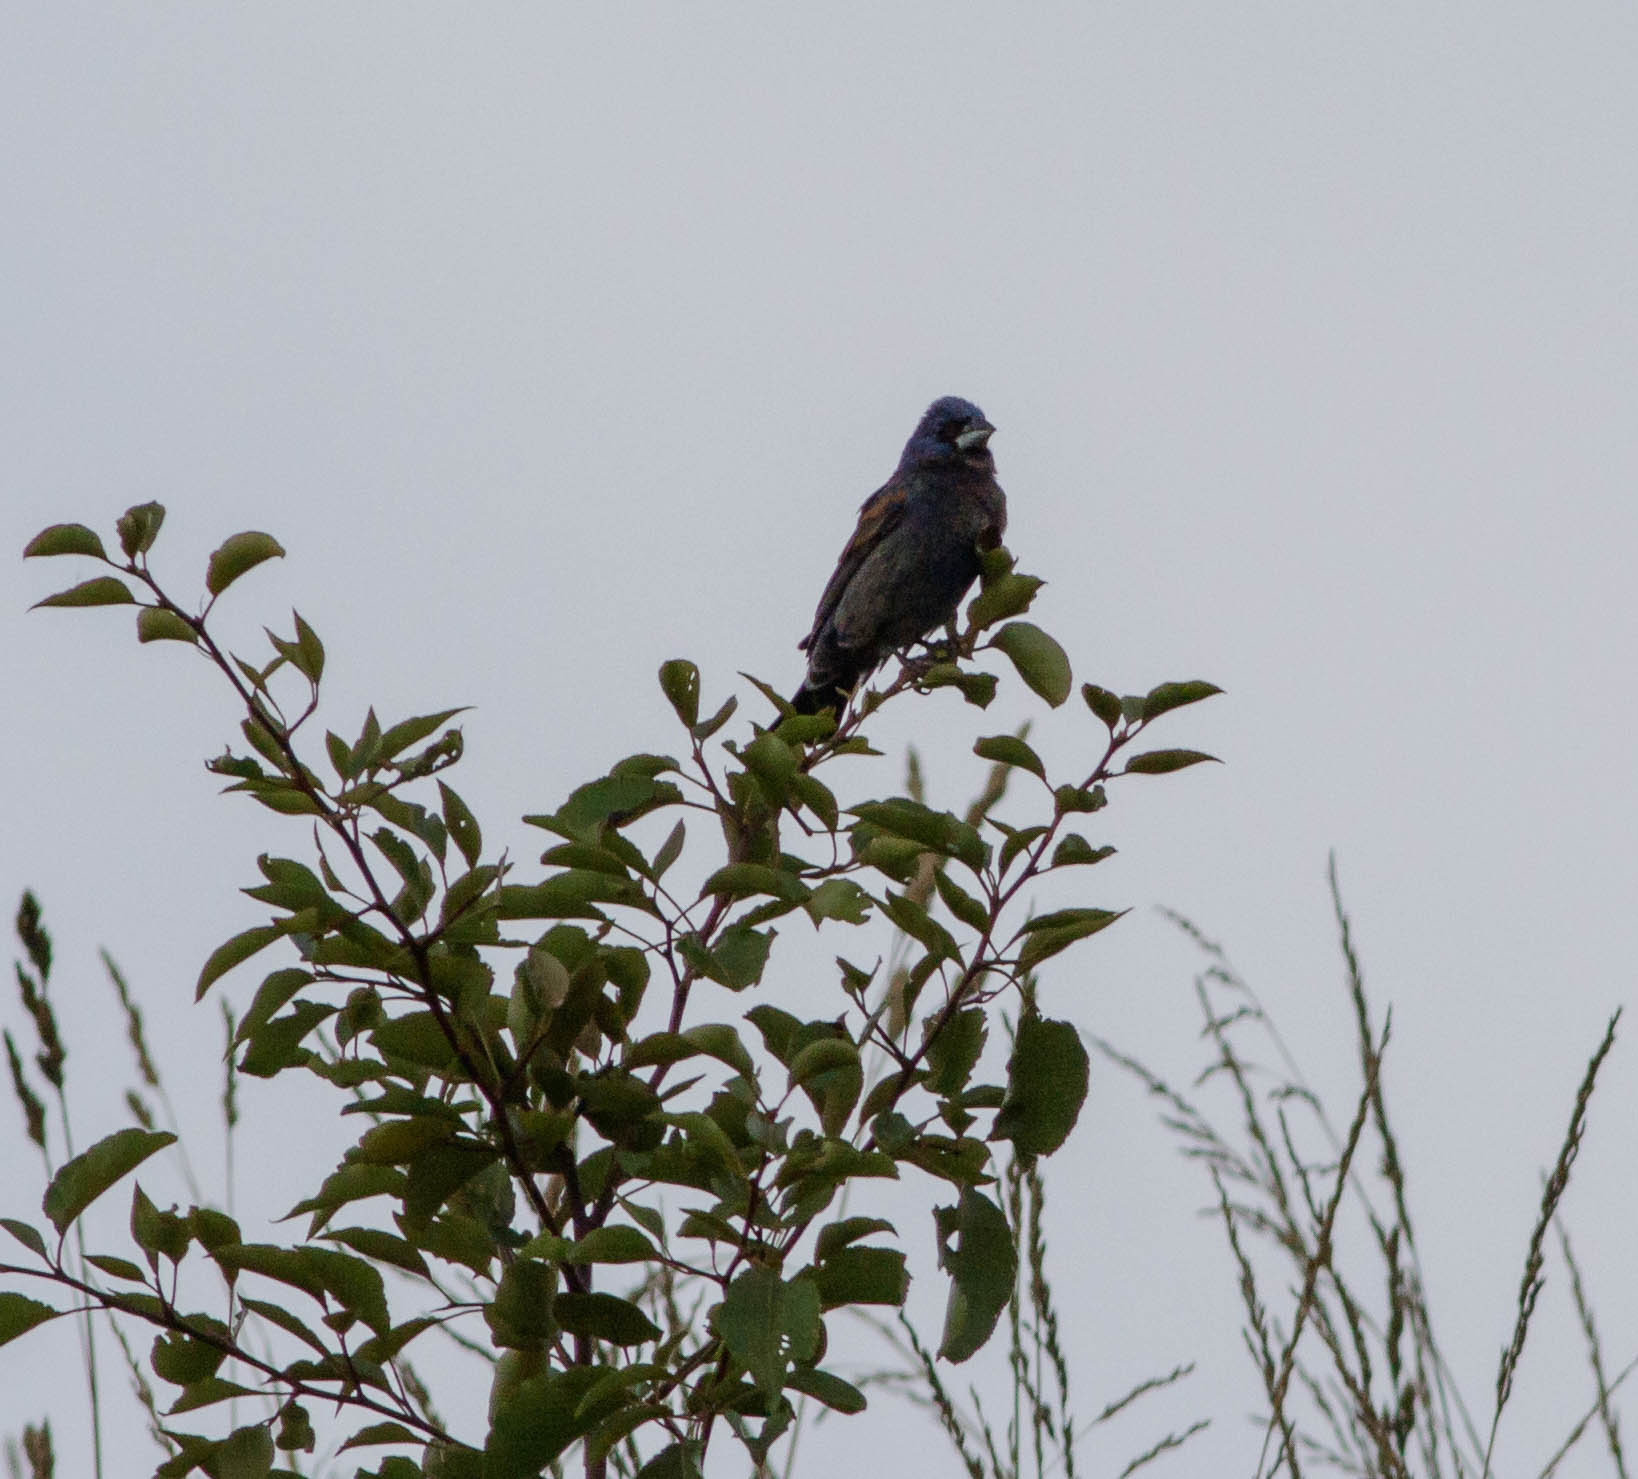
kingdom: Animalia
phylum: Chordata
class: Aves
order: Passeriformes
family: Cardinalidae
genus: Passerina
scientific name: Passerina caerulea
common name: Blue grosbeak
